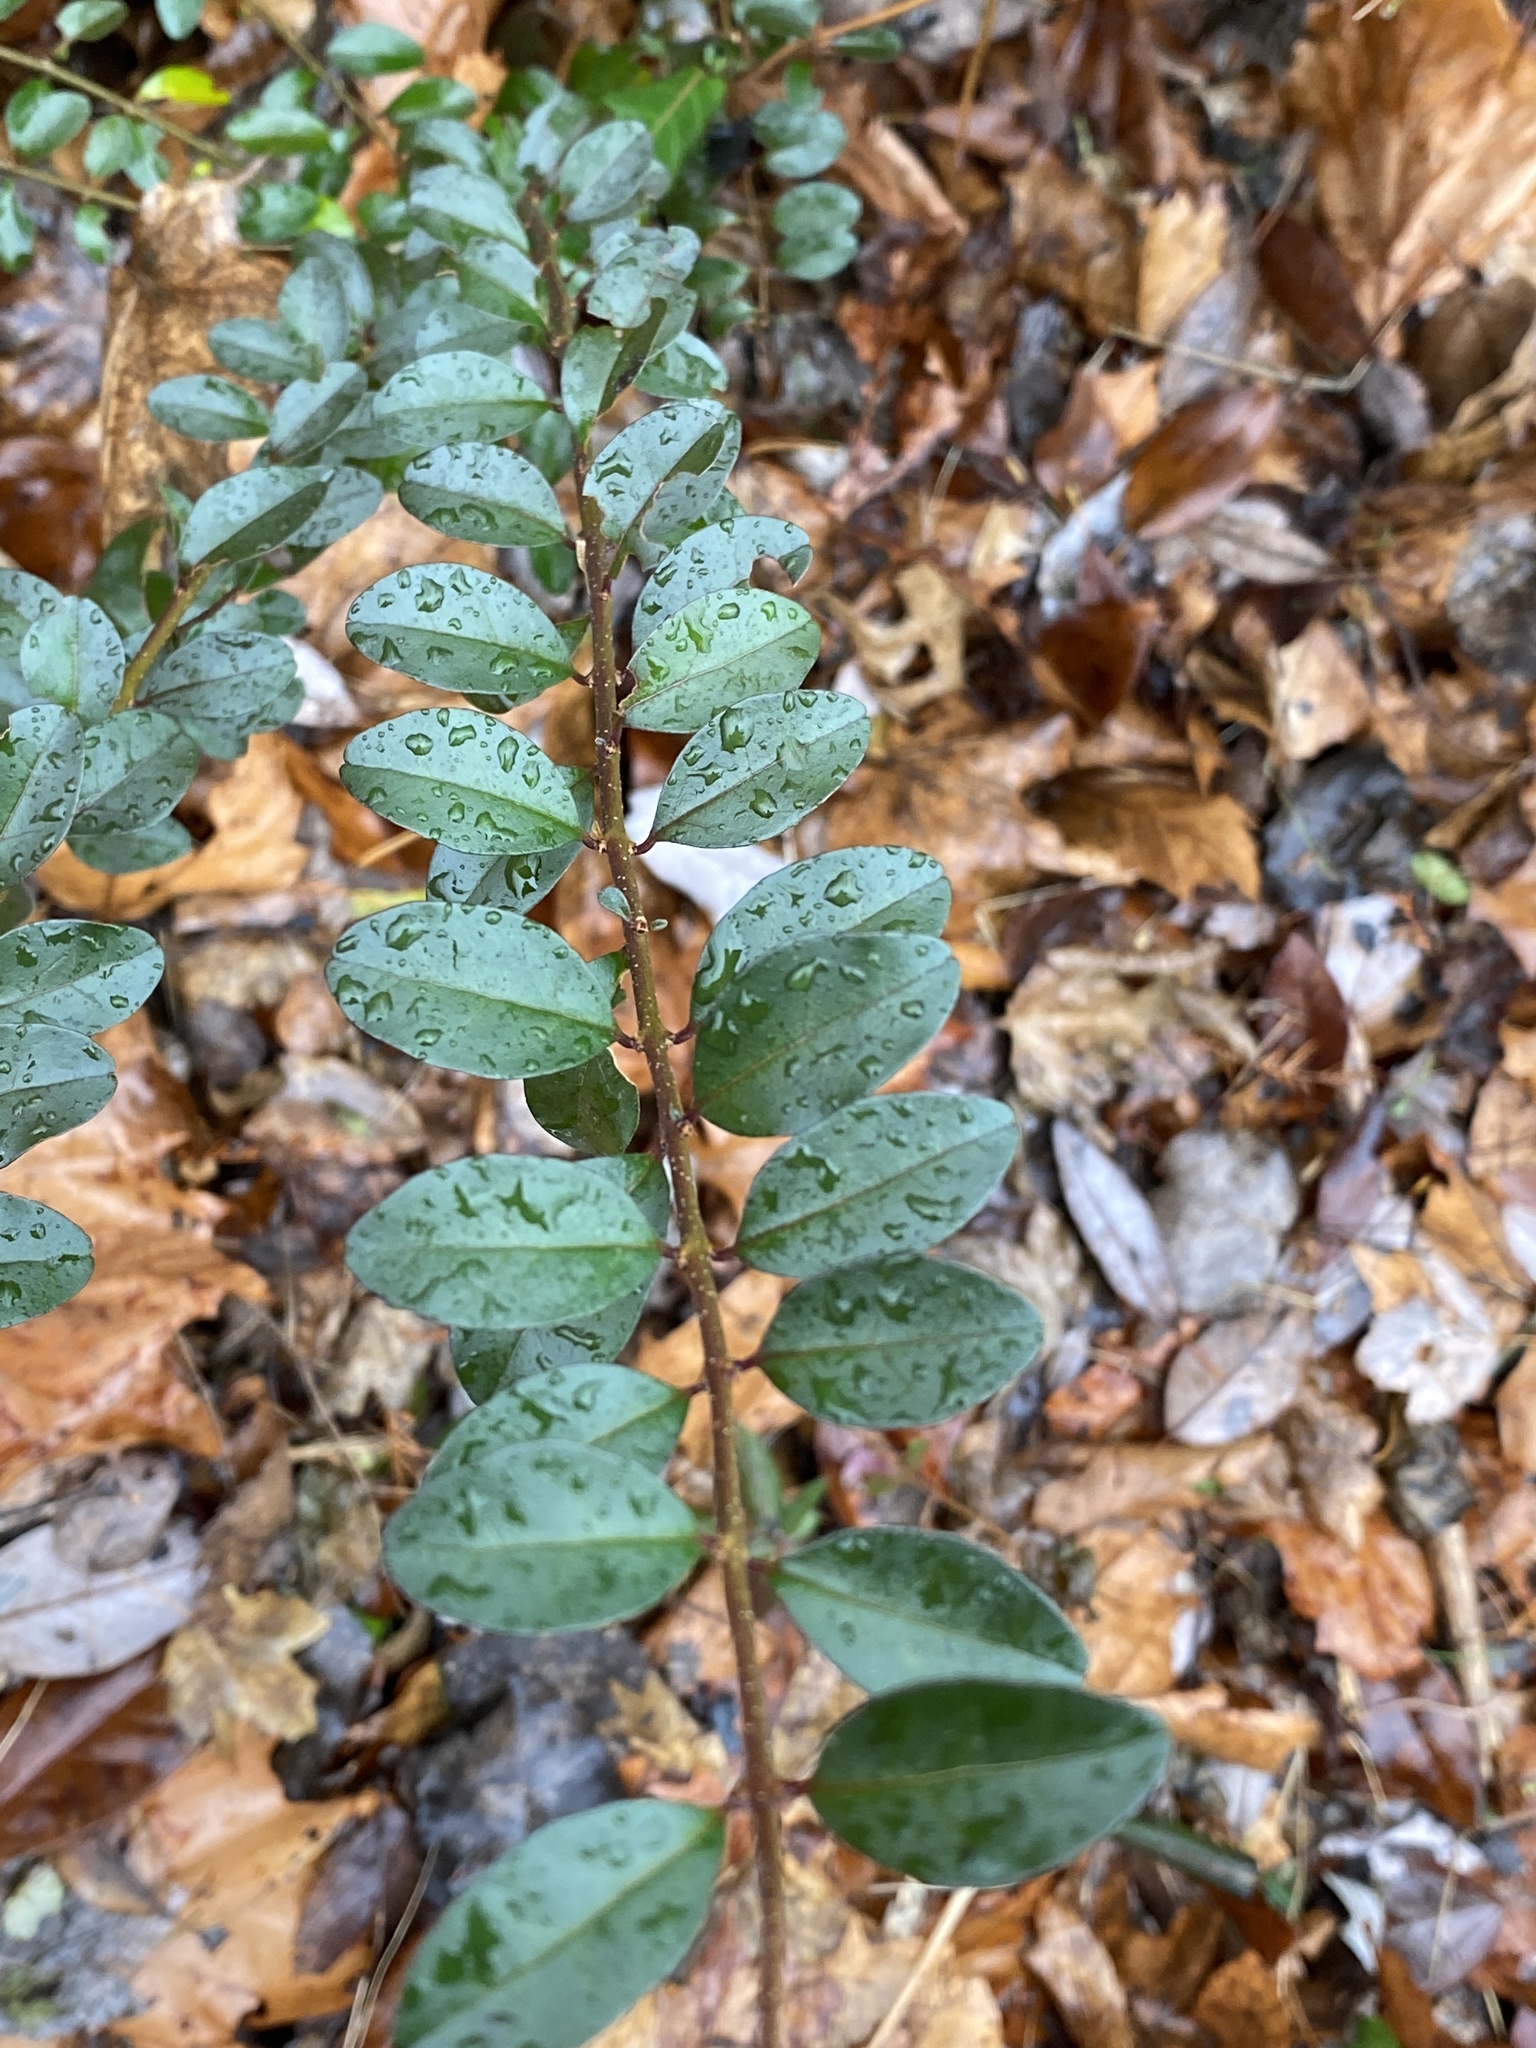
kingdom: Plantae
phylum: Tracheophyta
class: Magnoliopsida
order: Lamiales
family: Oleaceae
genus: Ligustrum
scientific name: Ligustrum sinense
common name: Chinese privet
